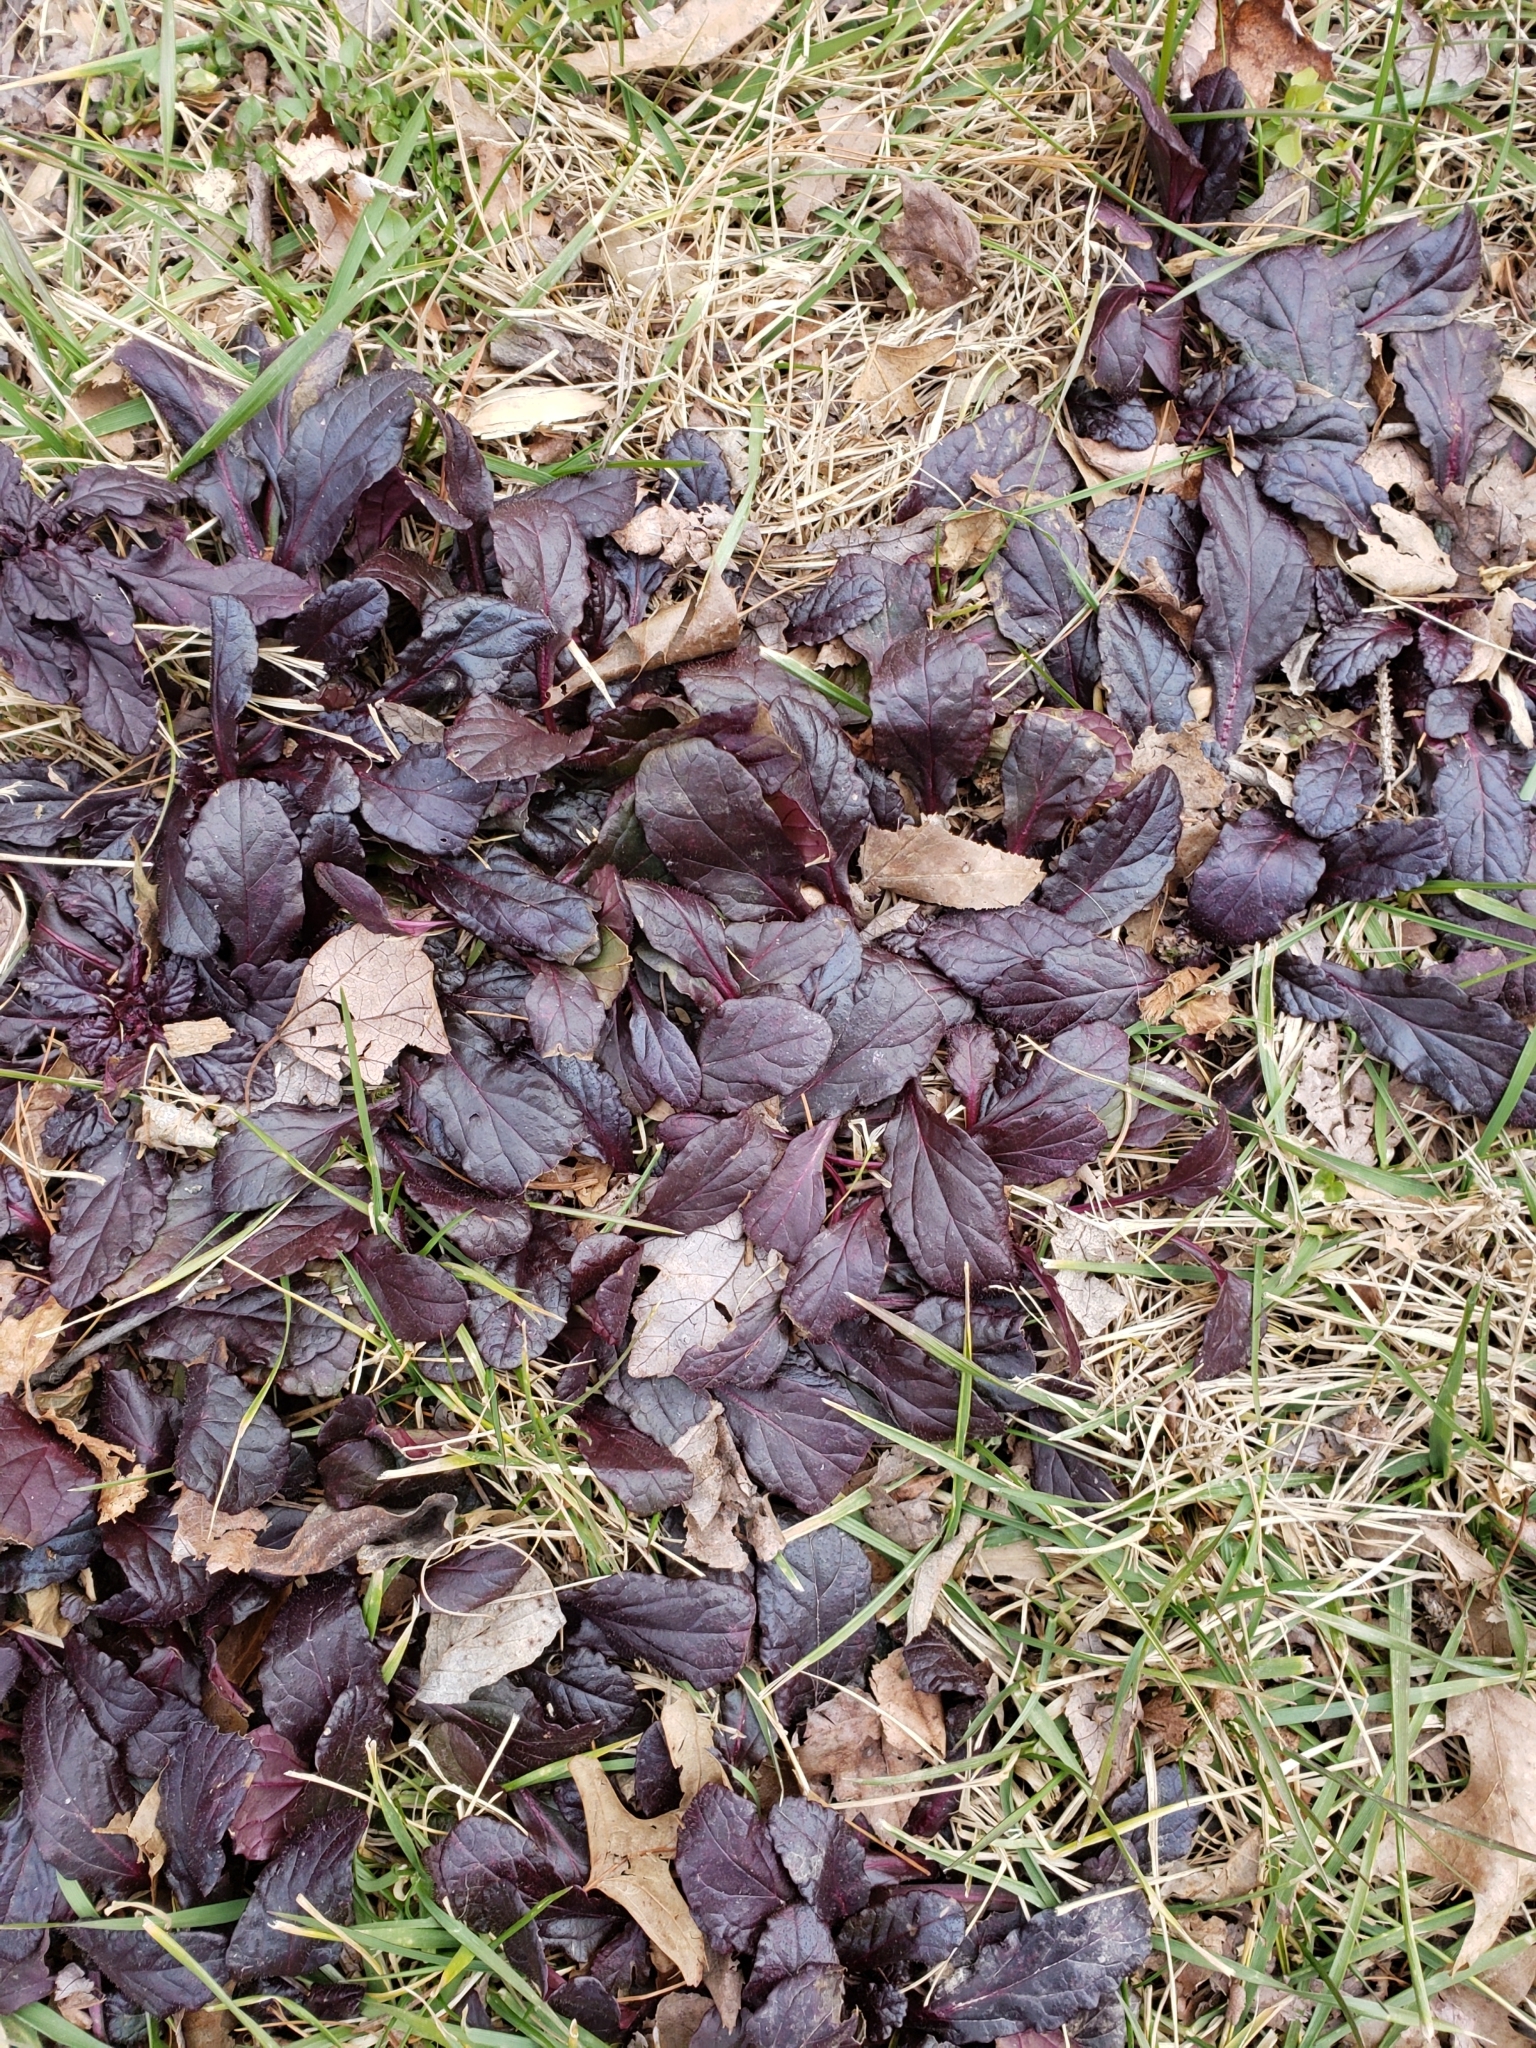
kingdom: Plantae
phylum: Tracheophyta
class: Magnoliopsida
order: Lamiales
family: Lamiaceae
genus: Ajuga
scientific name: Ajuga reptans
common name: Bugle
